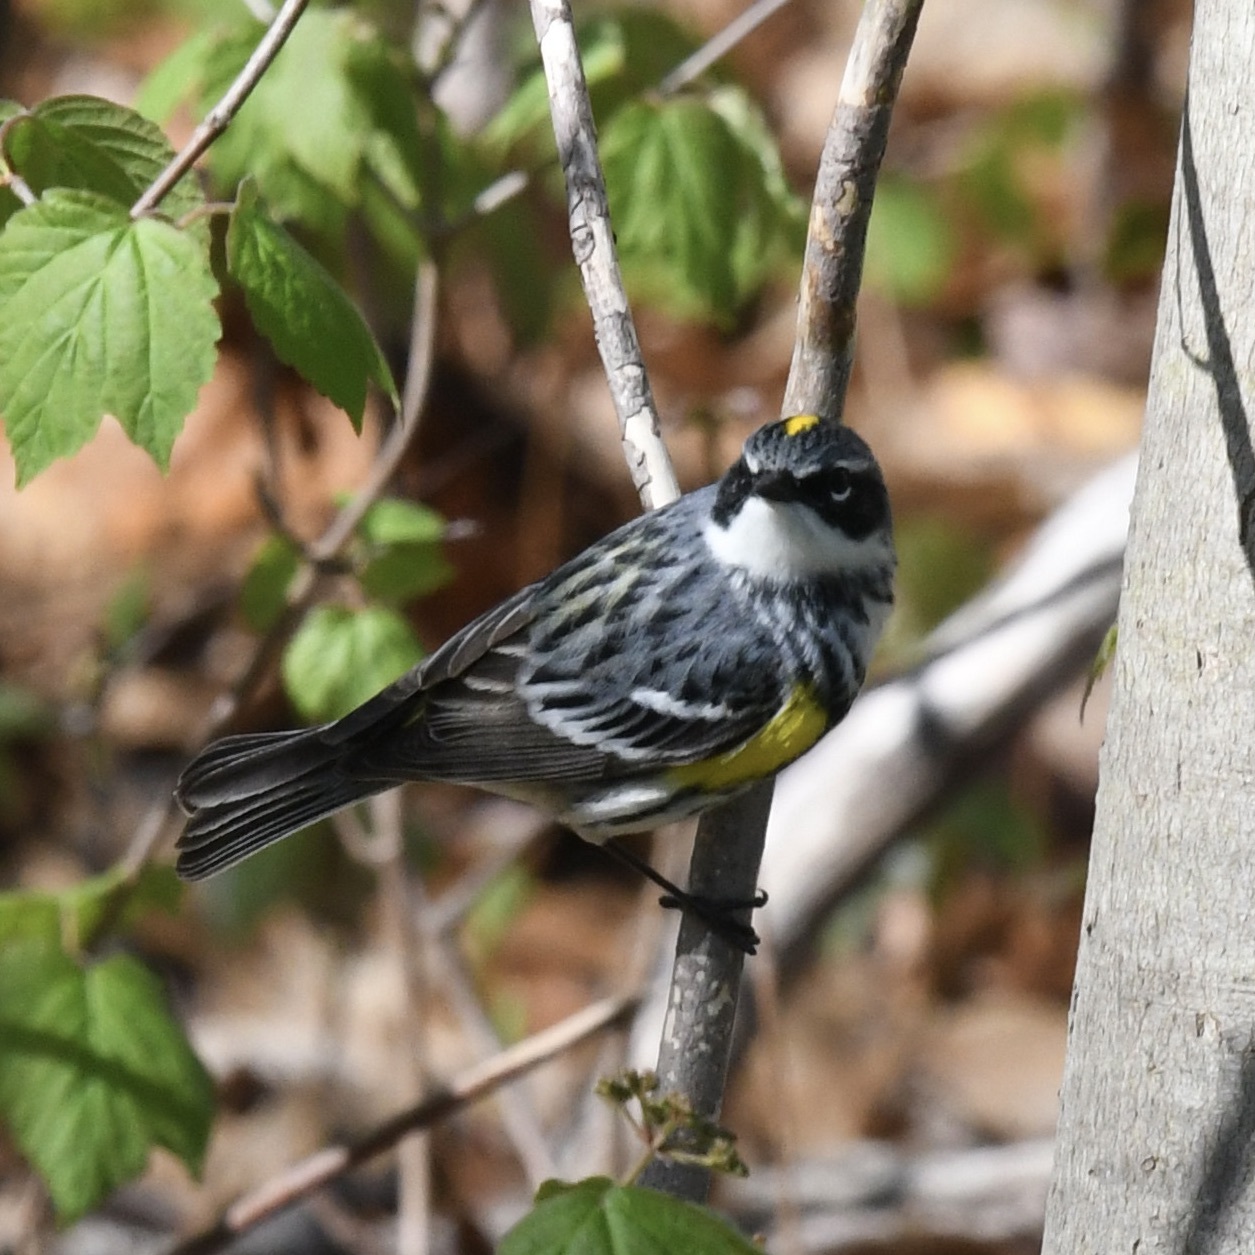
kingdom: Animalia
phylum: Chordata
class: Aves
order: Passeriformes
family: Parulidae
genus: Setophaga
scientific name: Setophaga coronata
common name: Myrtle warbler
